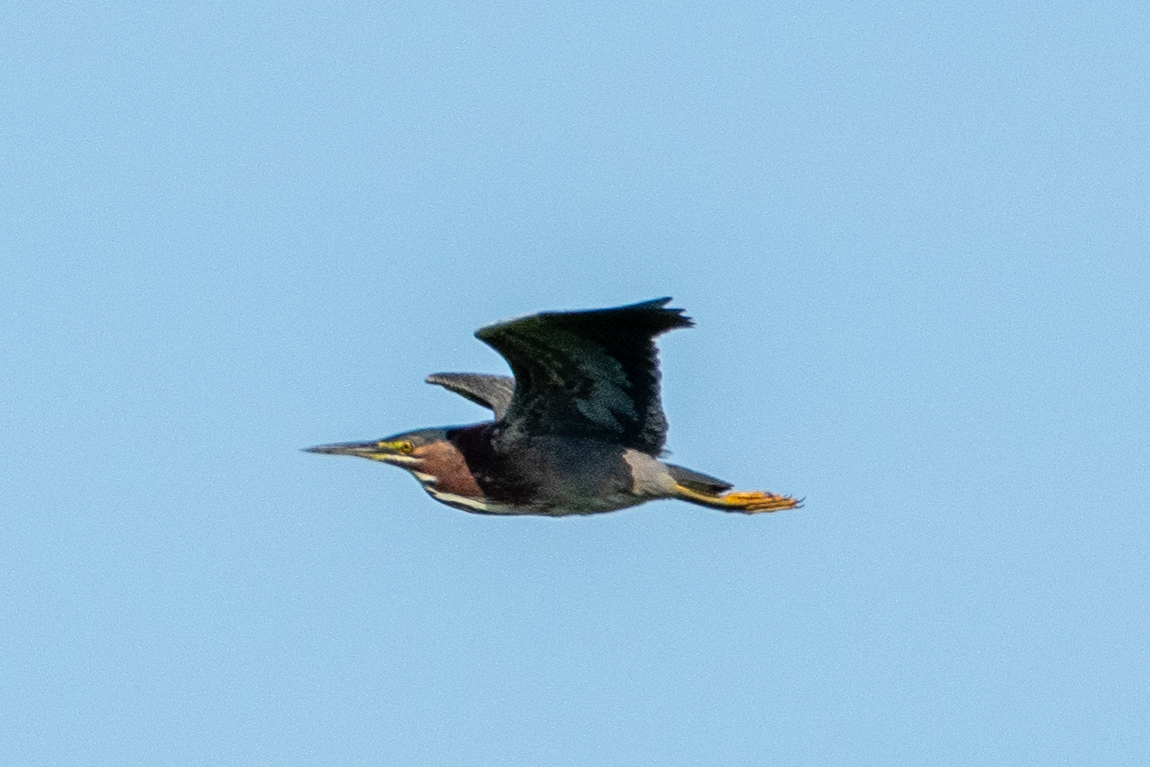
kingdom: Animalia
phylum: Chordata
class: Aves
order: Pelecaniformes
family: Ardeidae
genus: Butorides
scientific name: Butorides virescens
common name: Green heron
